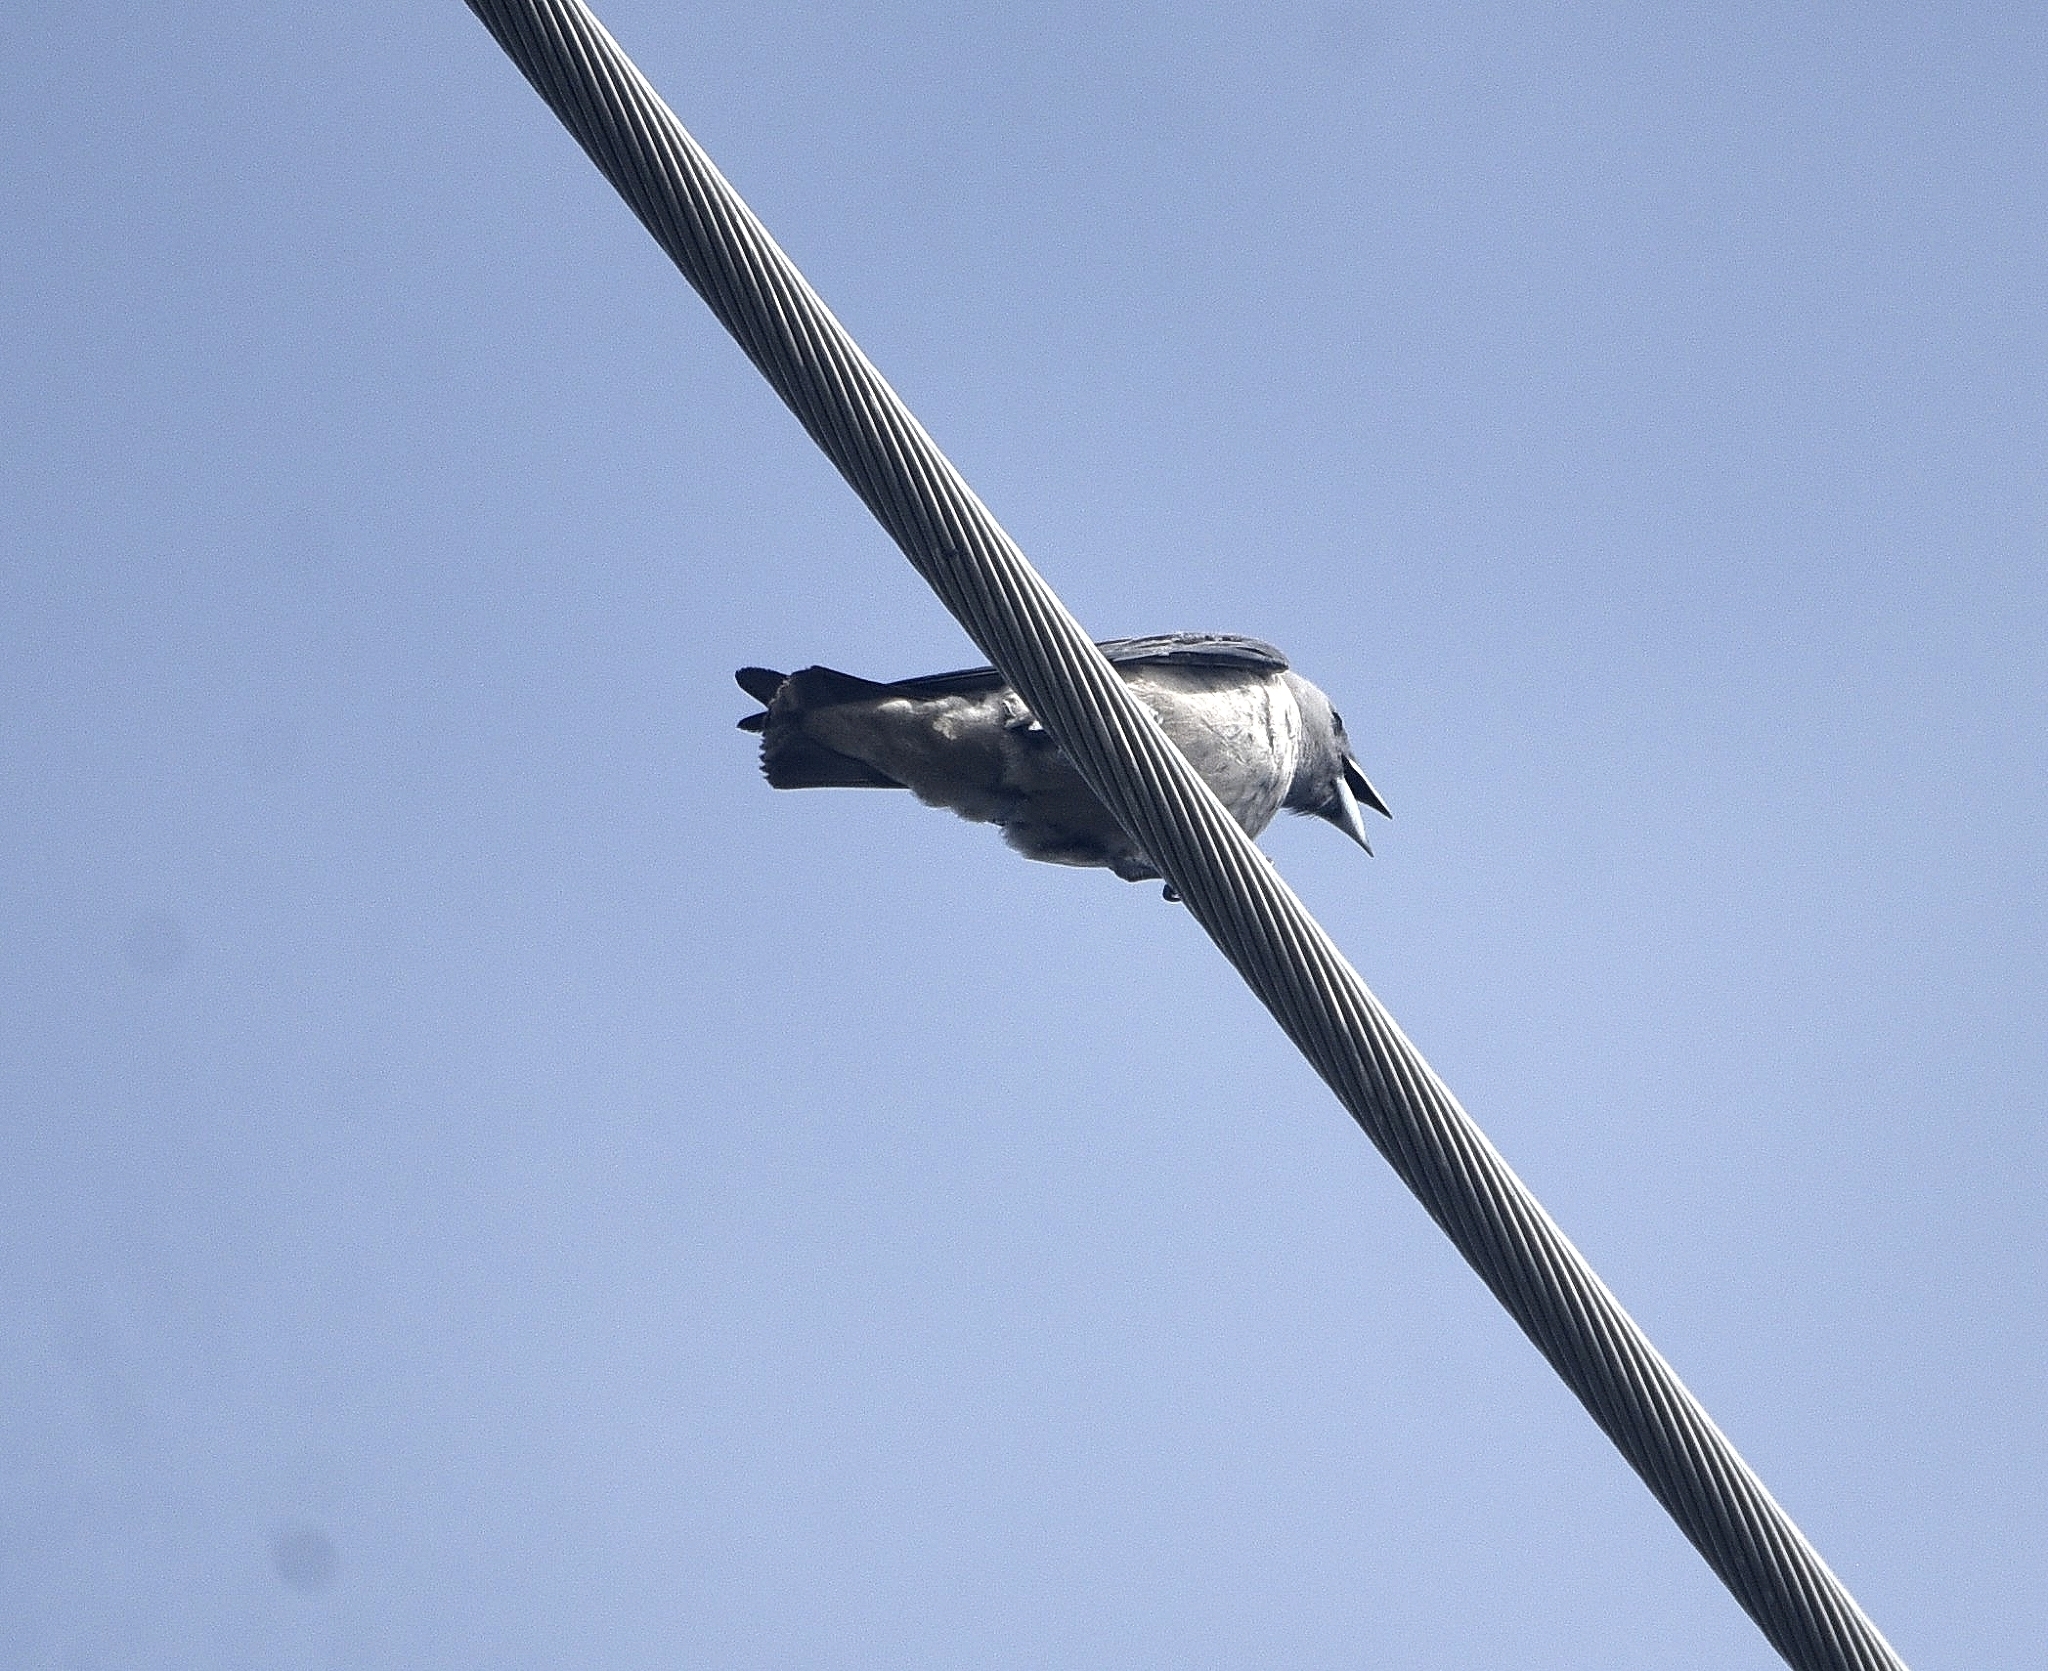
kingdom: Animalia
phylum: Chordata
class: Aves
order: Passeriformes
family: Artamidae
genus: Artamus
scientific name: Artamus fuscus
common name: Ashy woodswallow
